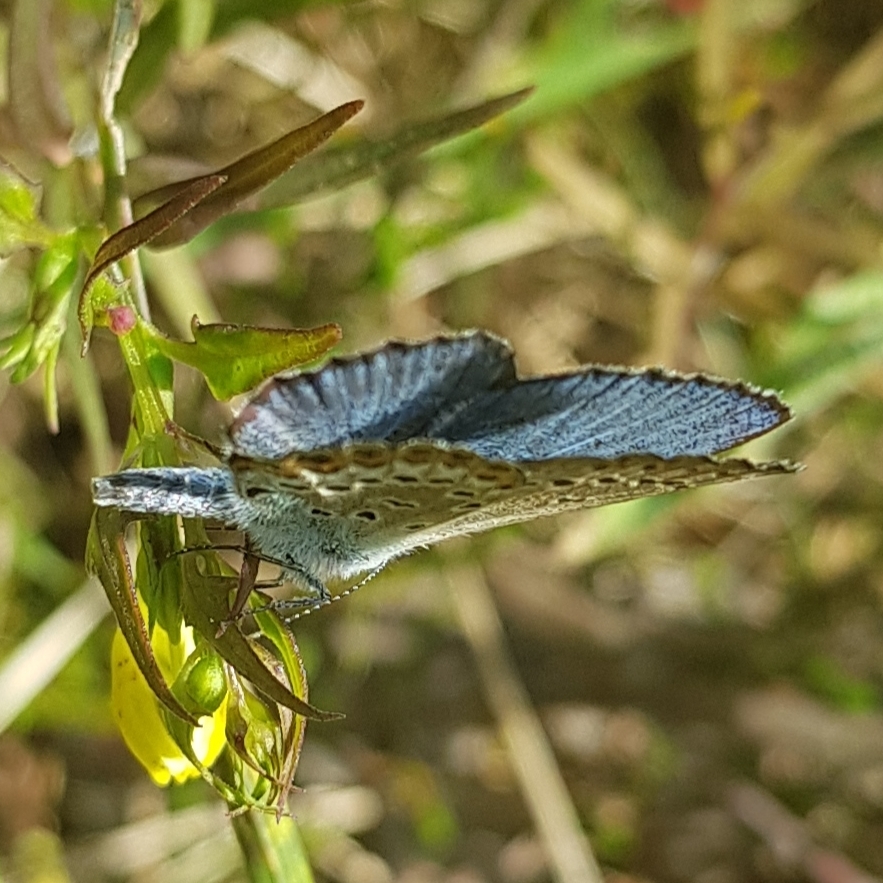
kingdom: Animalia
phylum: Arthropoda
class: Insecta
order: Lepidoptera
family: Lycaenidae
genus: Lycaeides
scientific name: Lycaeides idas
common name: Northern blue
